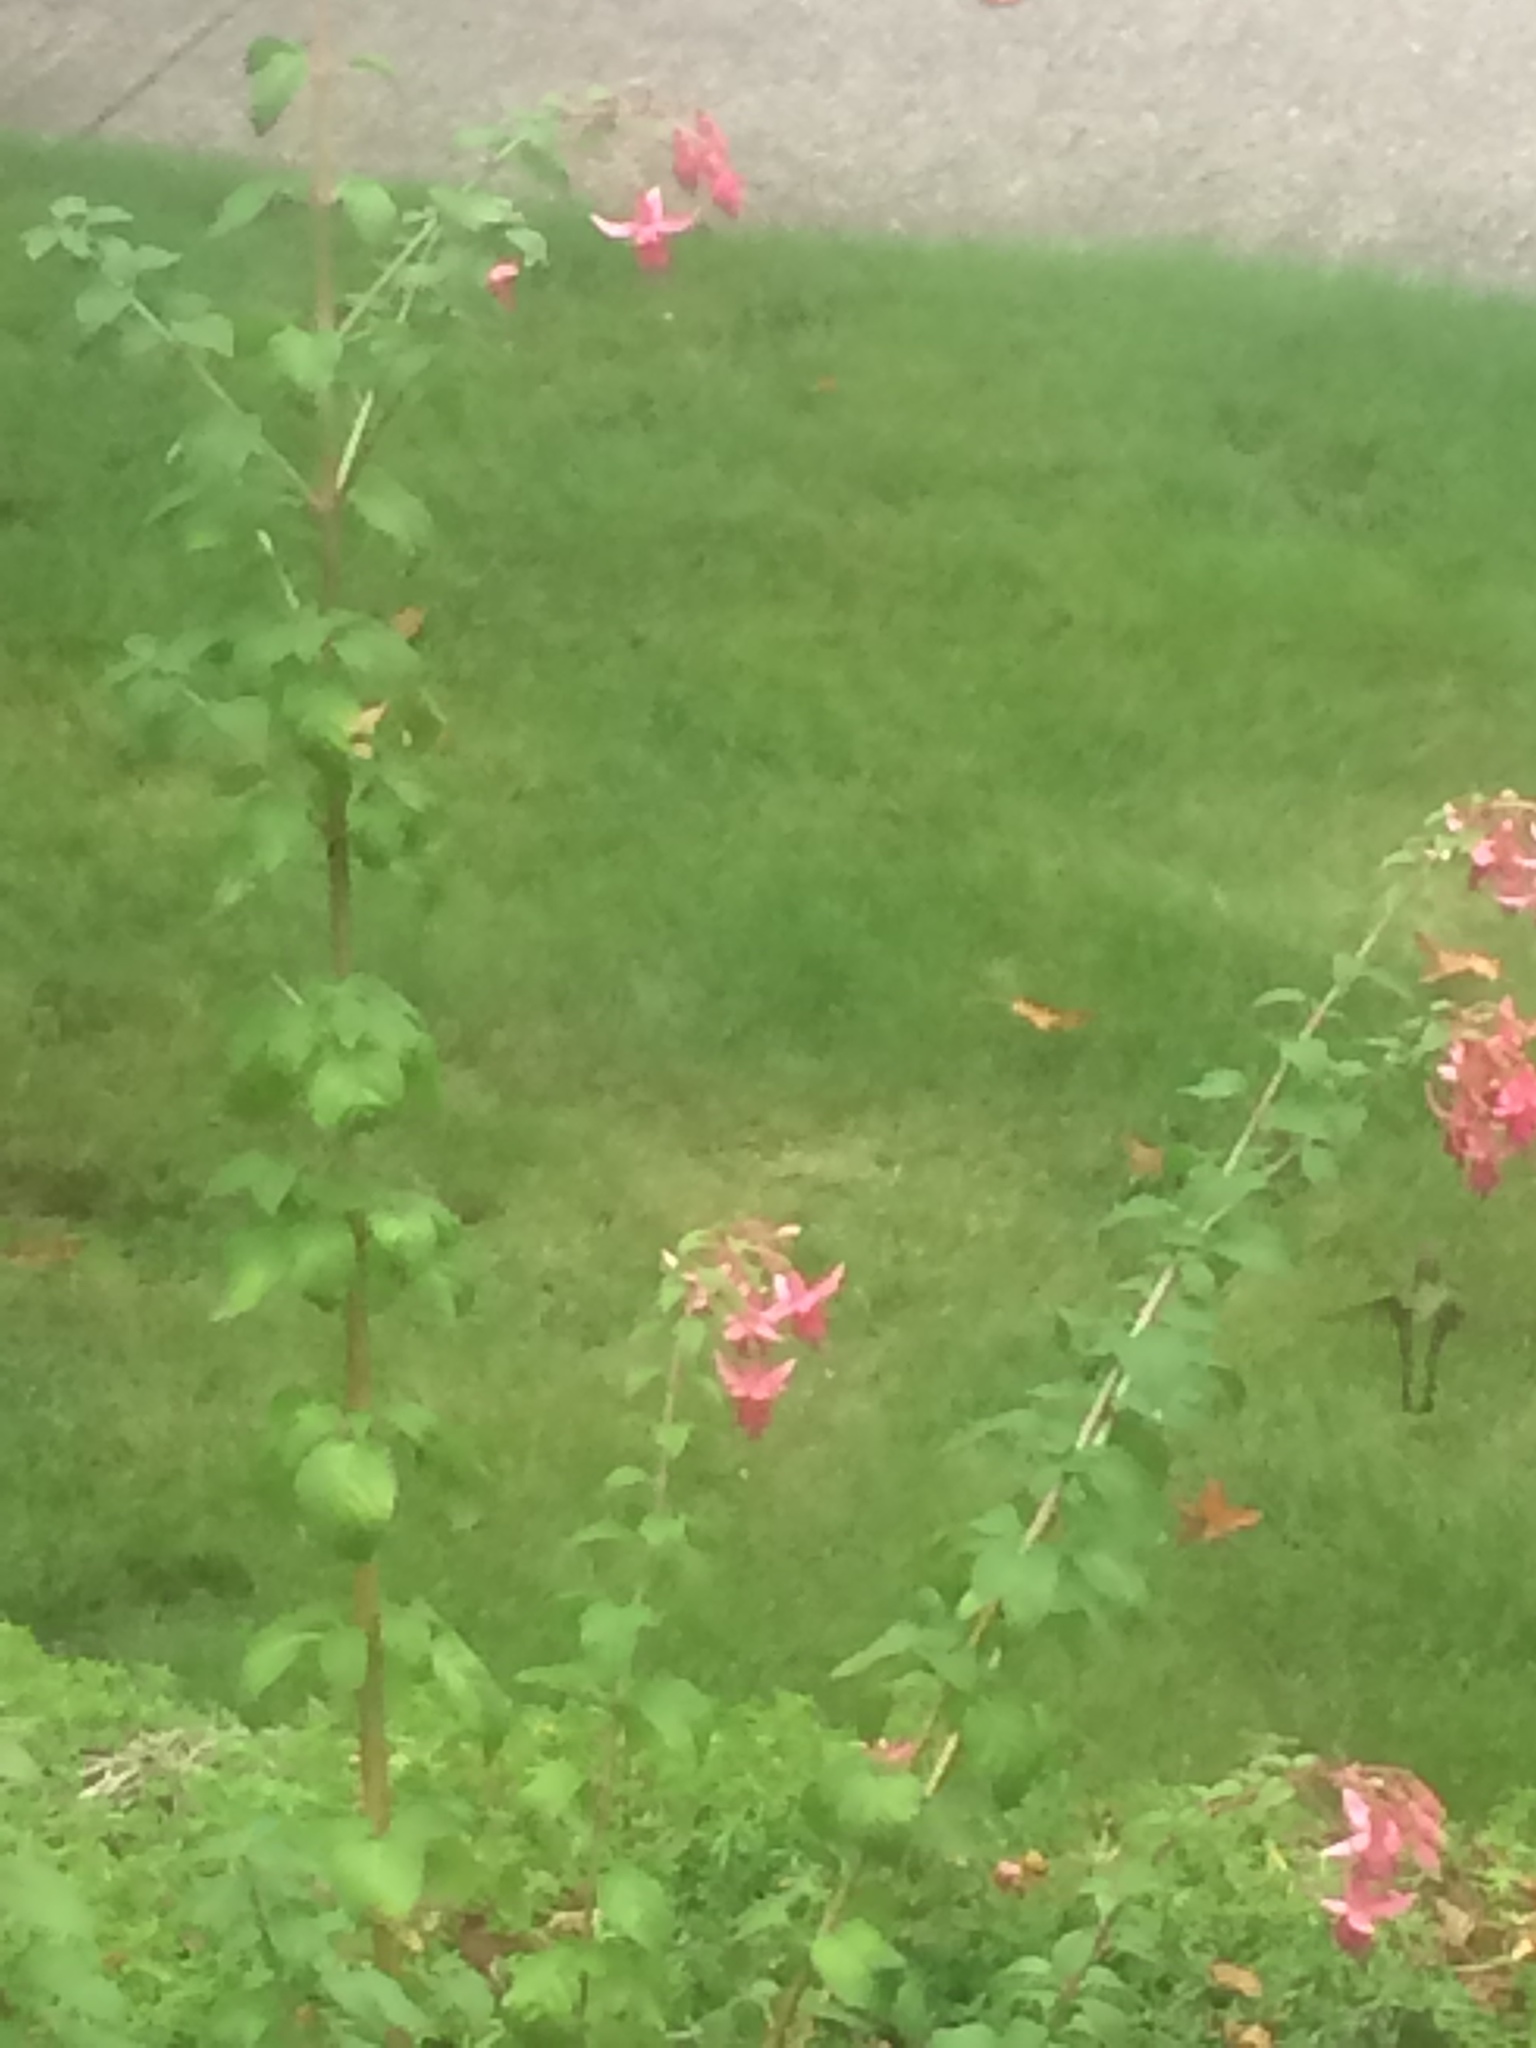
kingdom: Animalia
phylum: Chordata
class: Aves
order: Apodiformes
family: Trochilidae
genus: Calypte
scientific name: Calypte anna
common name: Anna's hummingbird
